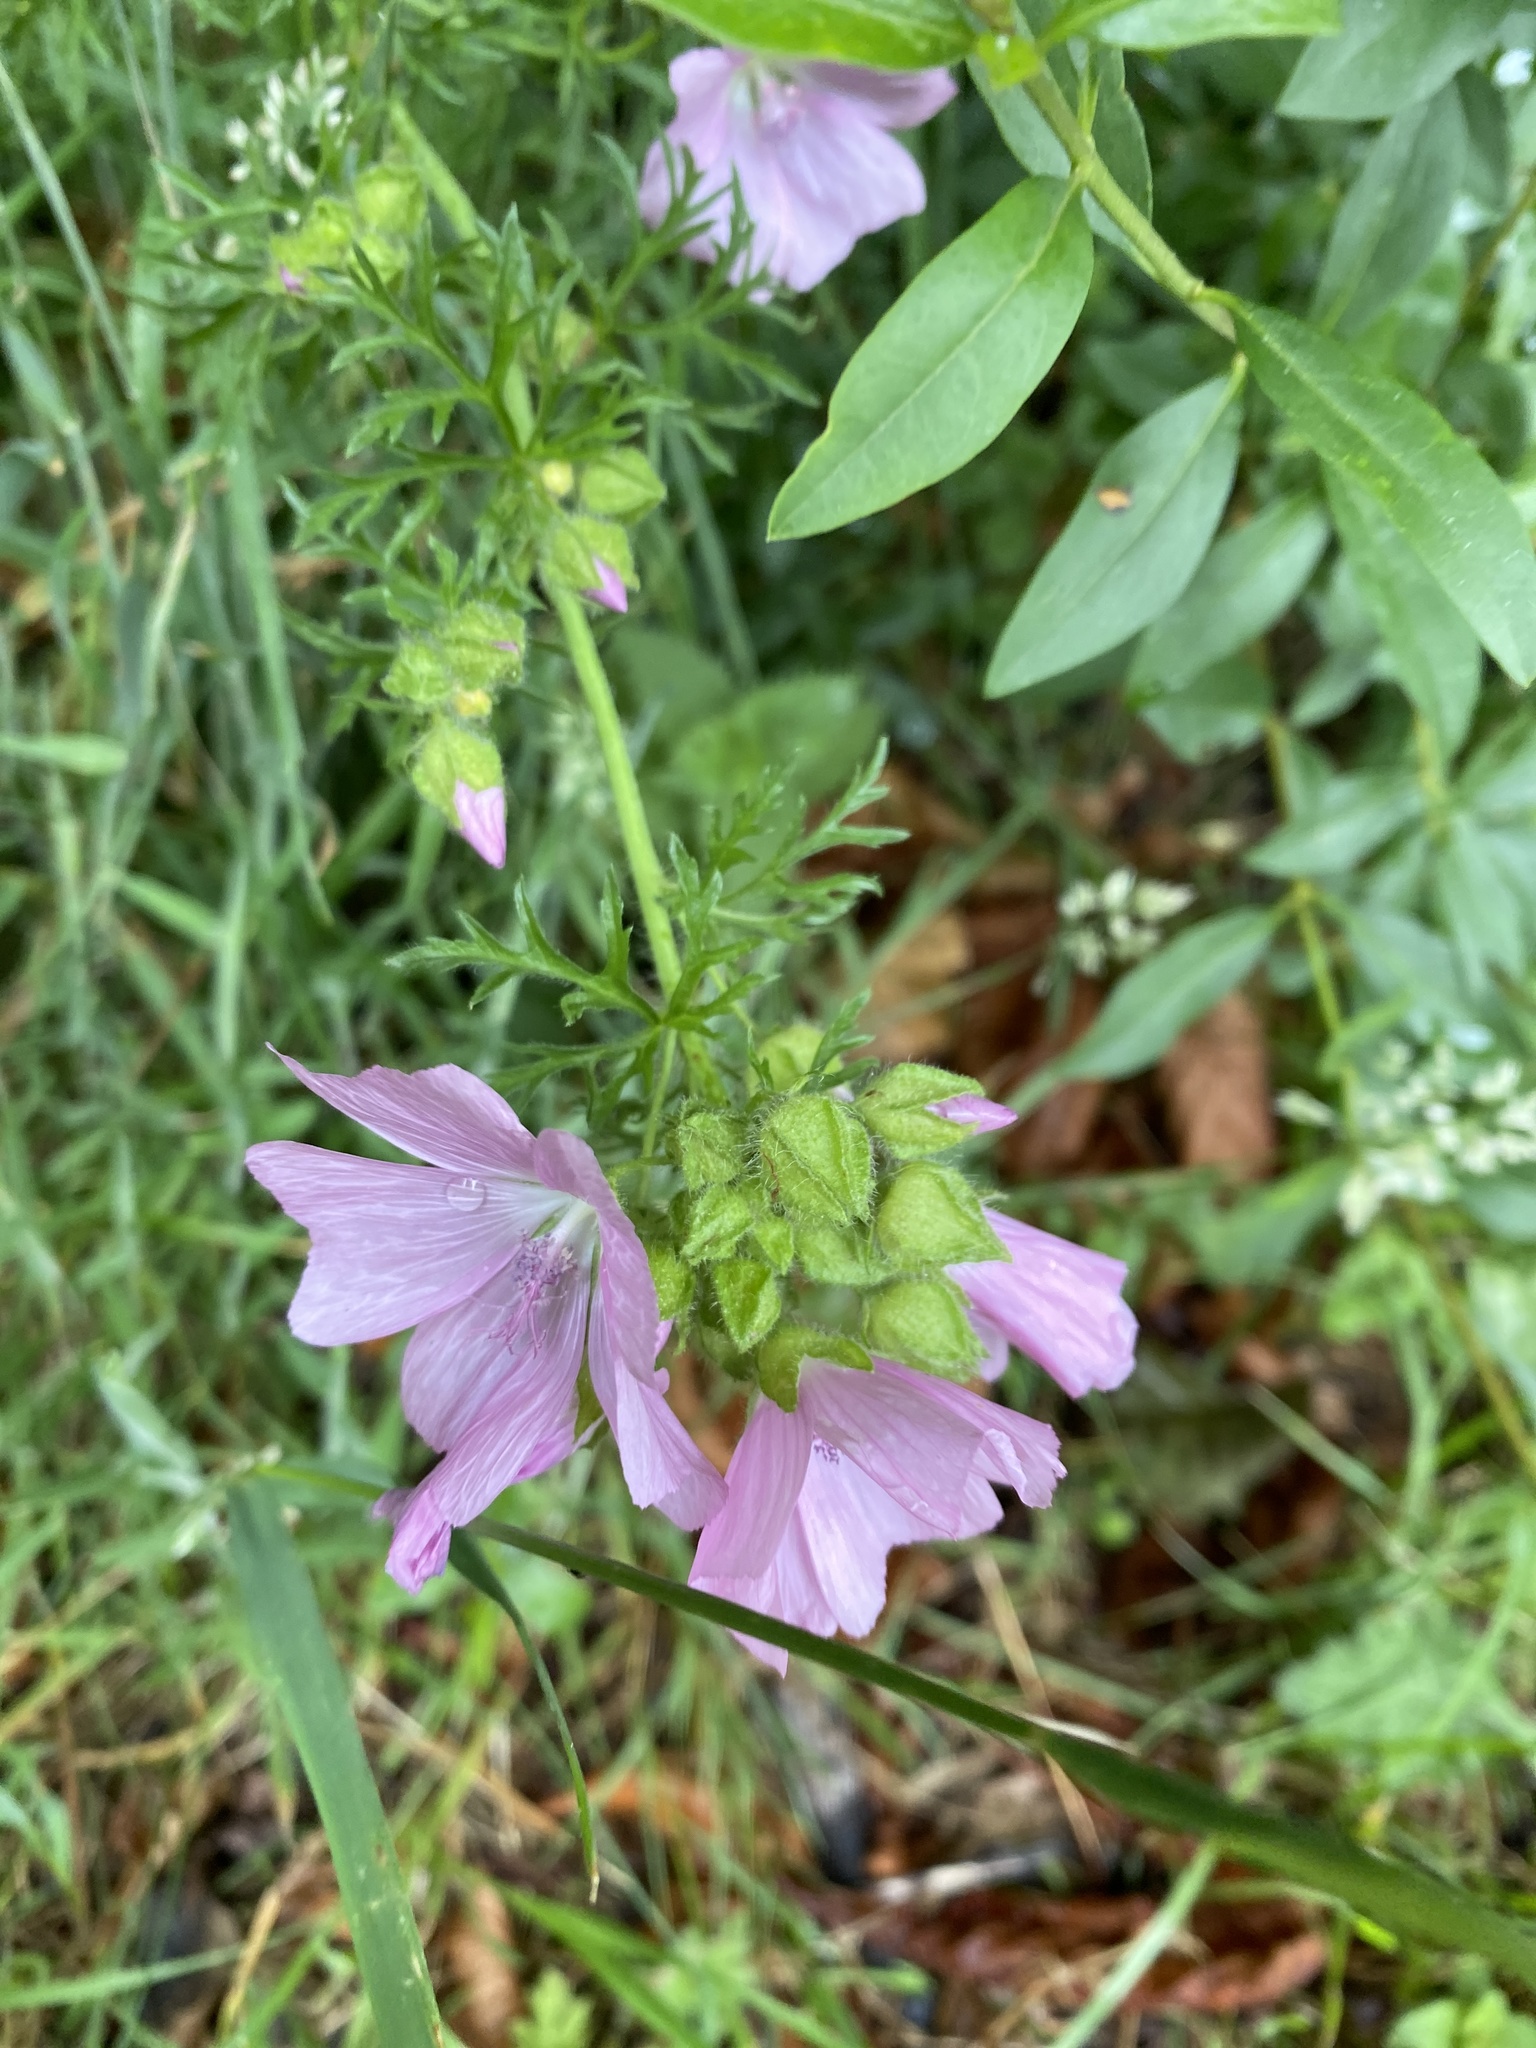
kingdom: Plantae
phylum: Tracheophyta
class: Magnoliopsida
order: Malvales
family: Malvaceae
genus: Malva
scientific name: Malva moschata
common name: Musk mallow
